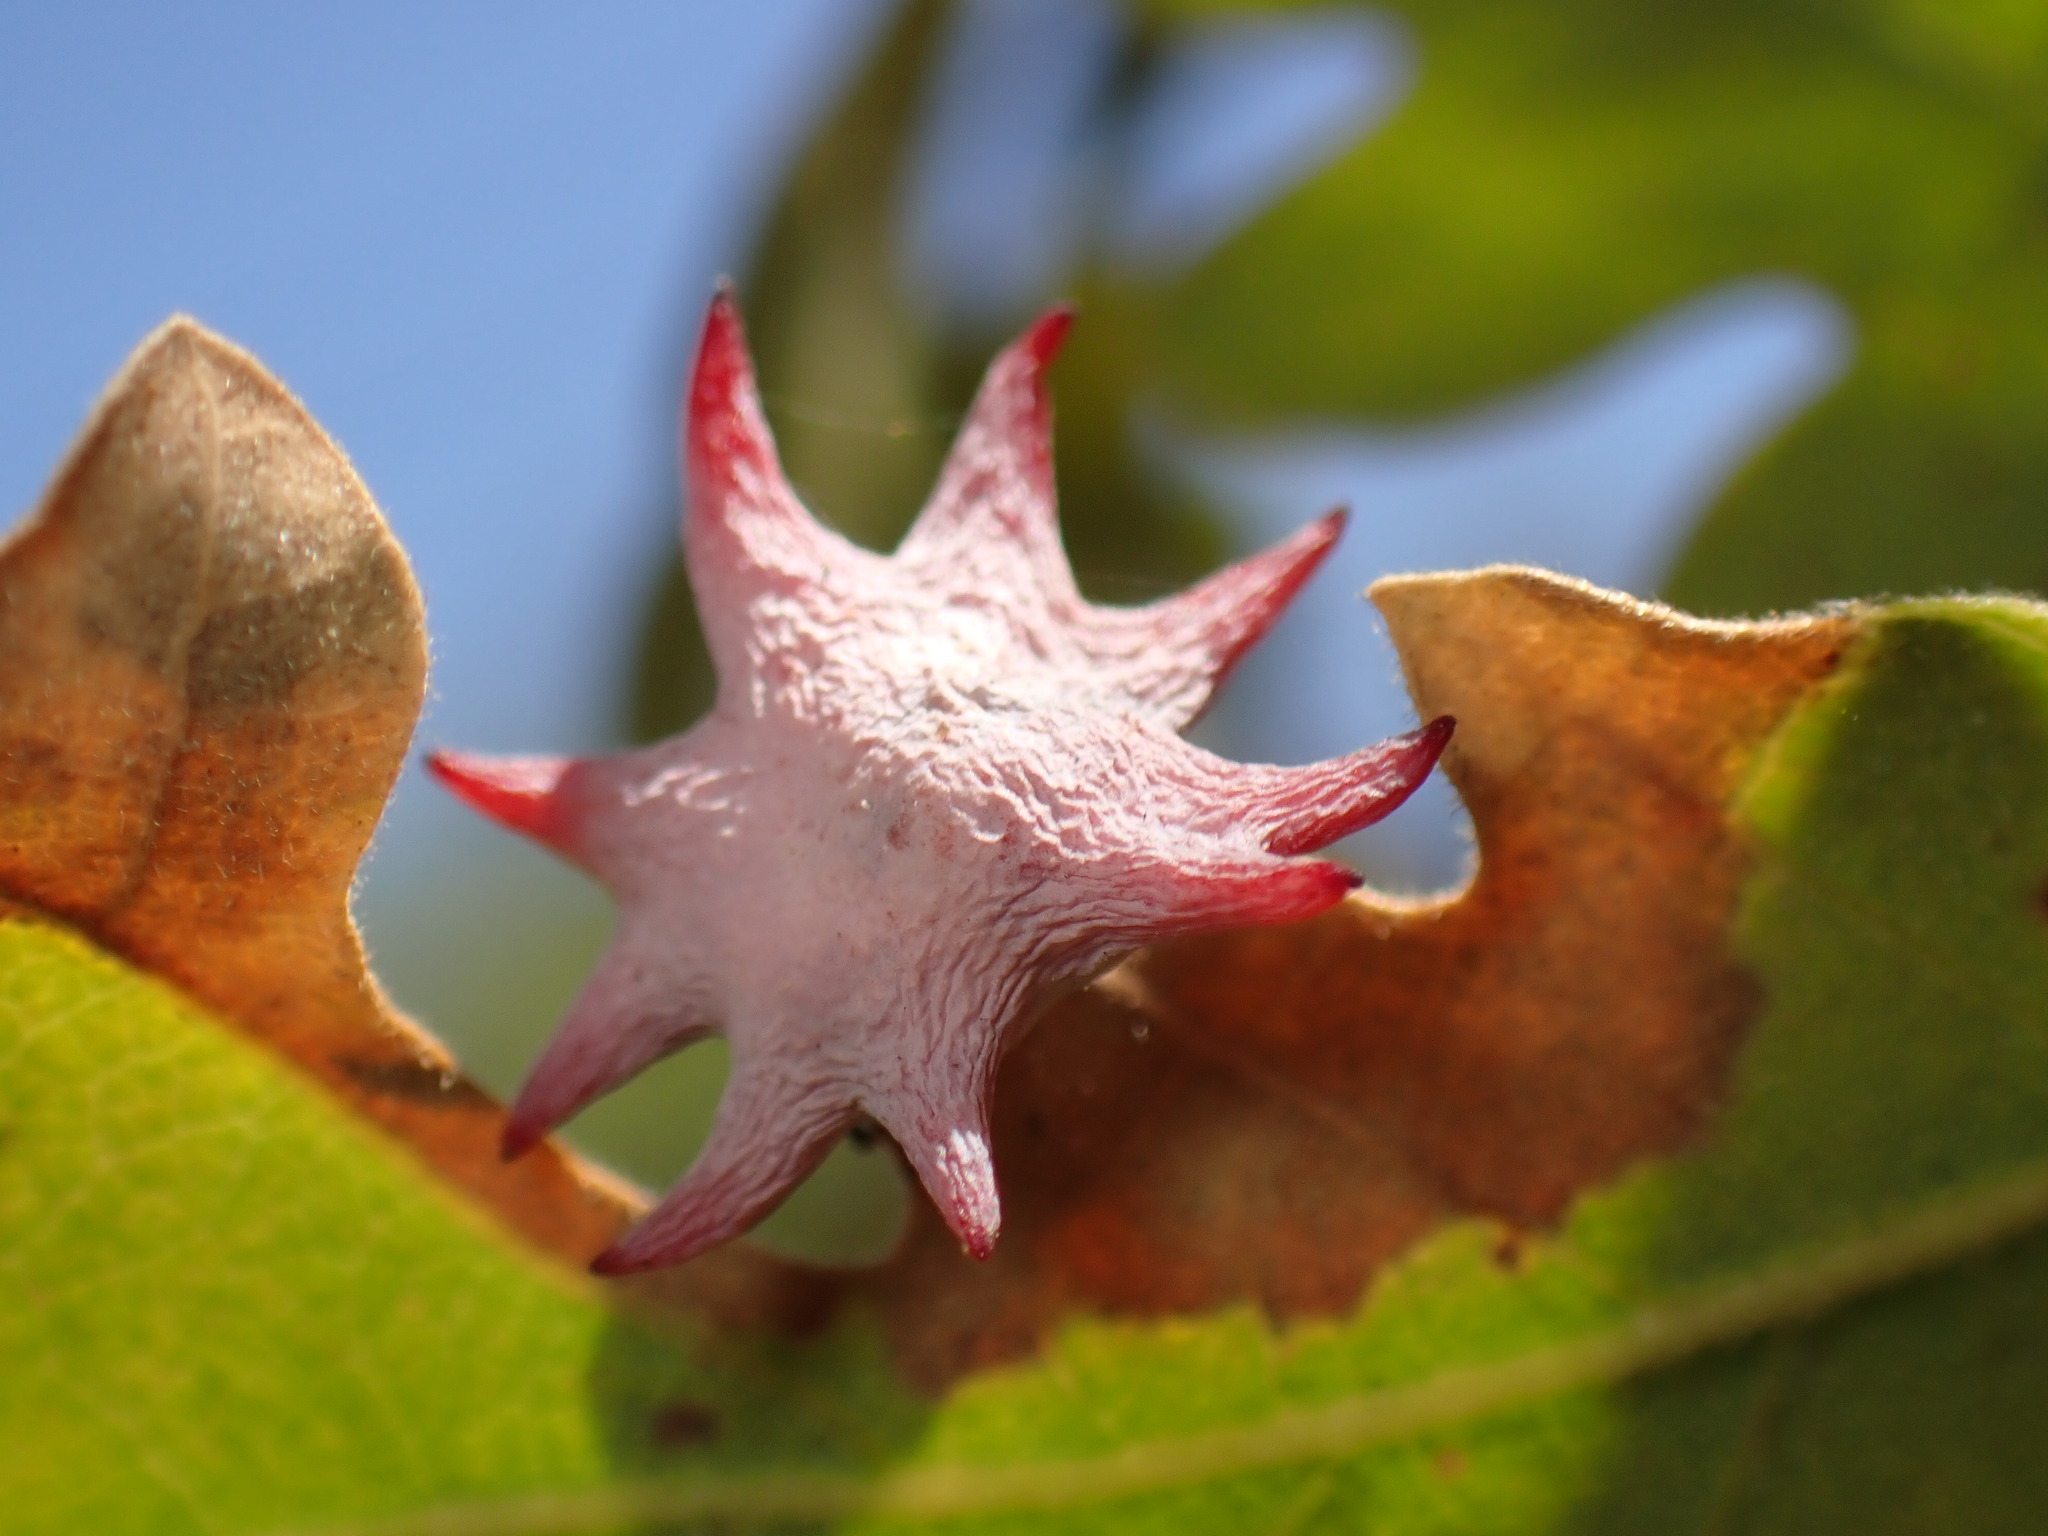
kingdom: Animalia
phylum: Arthropoda
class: Insecta
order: Hymenoptera
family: Cynipidae
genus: Cynips
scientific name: Cynips douglasi
